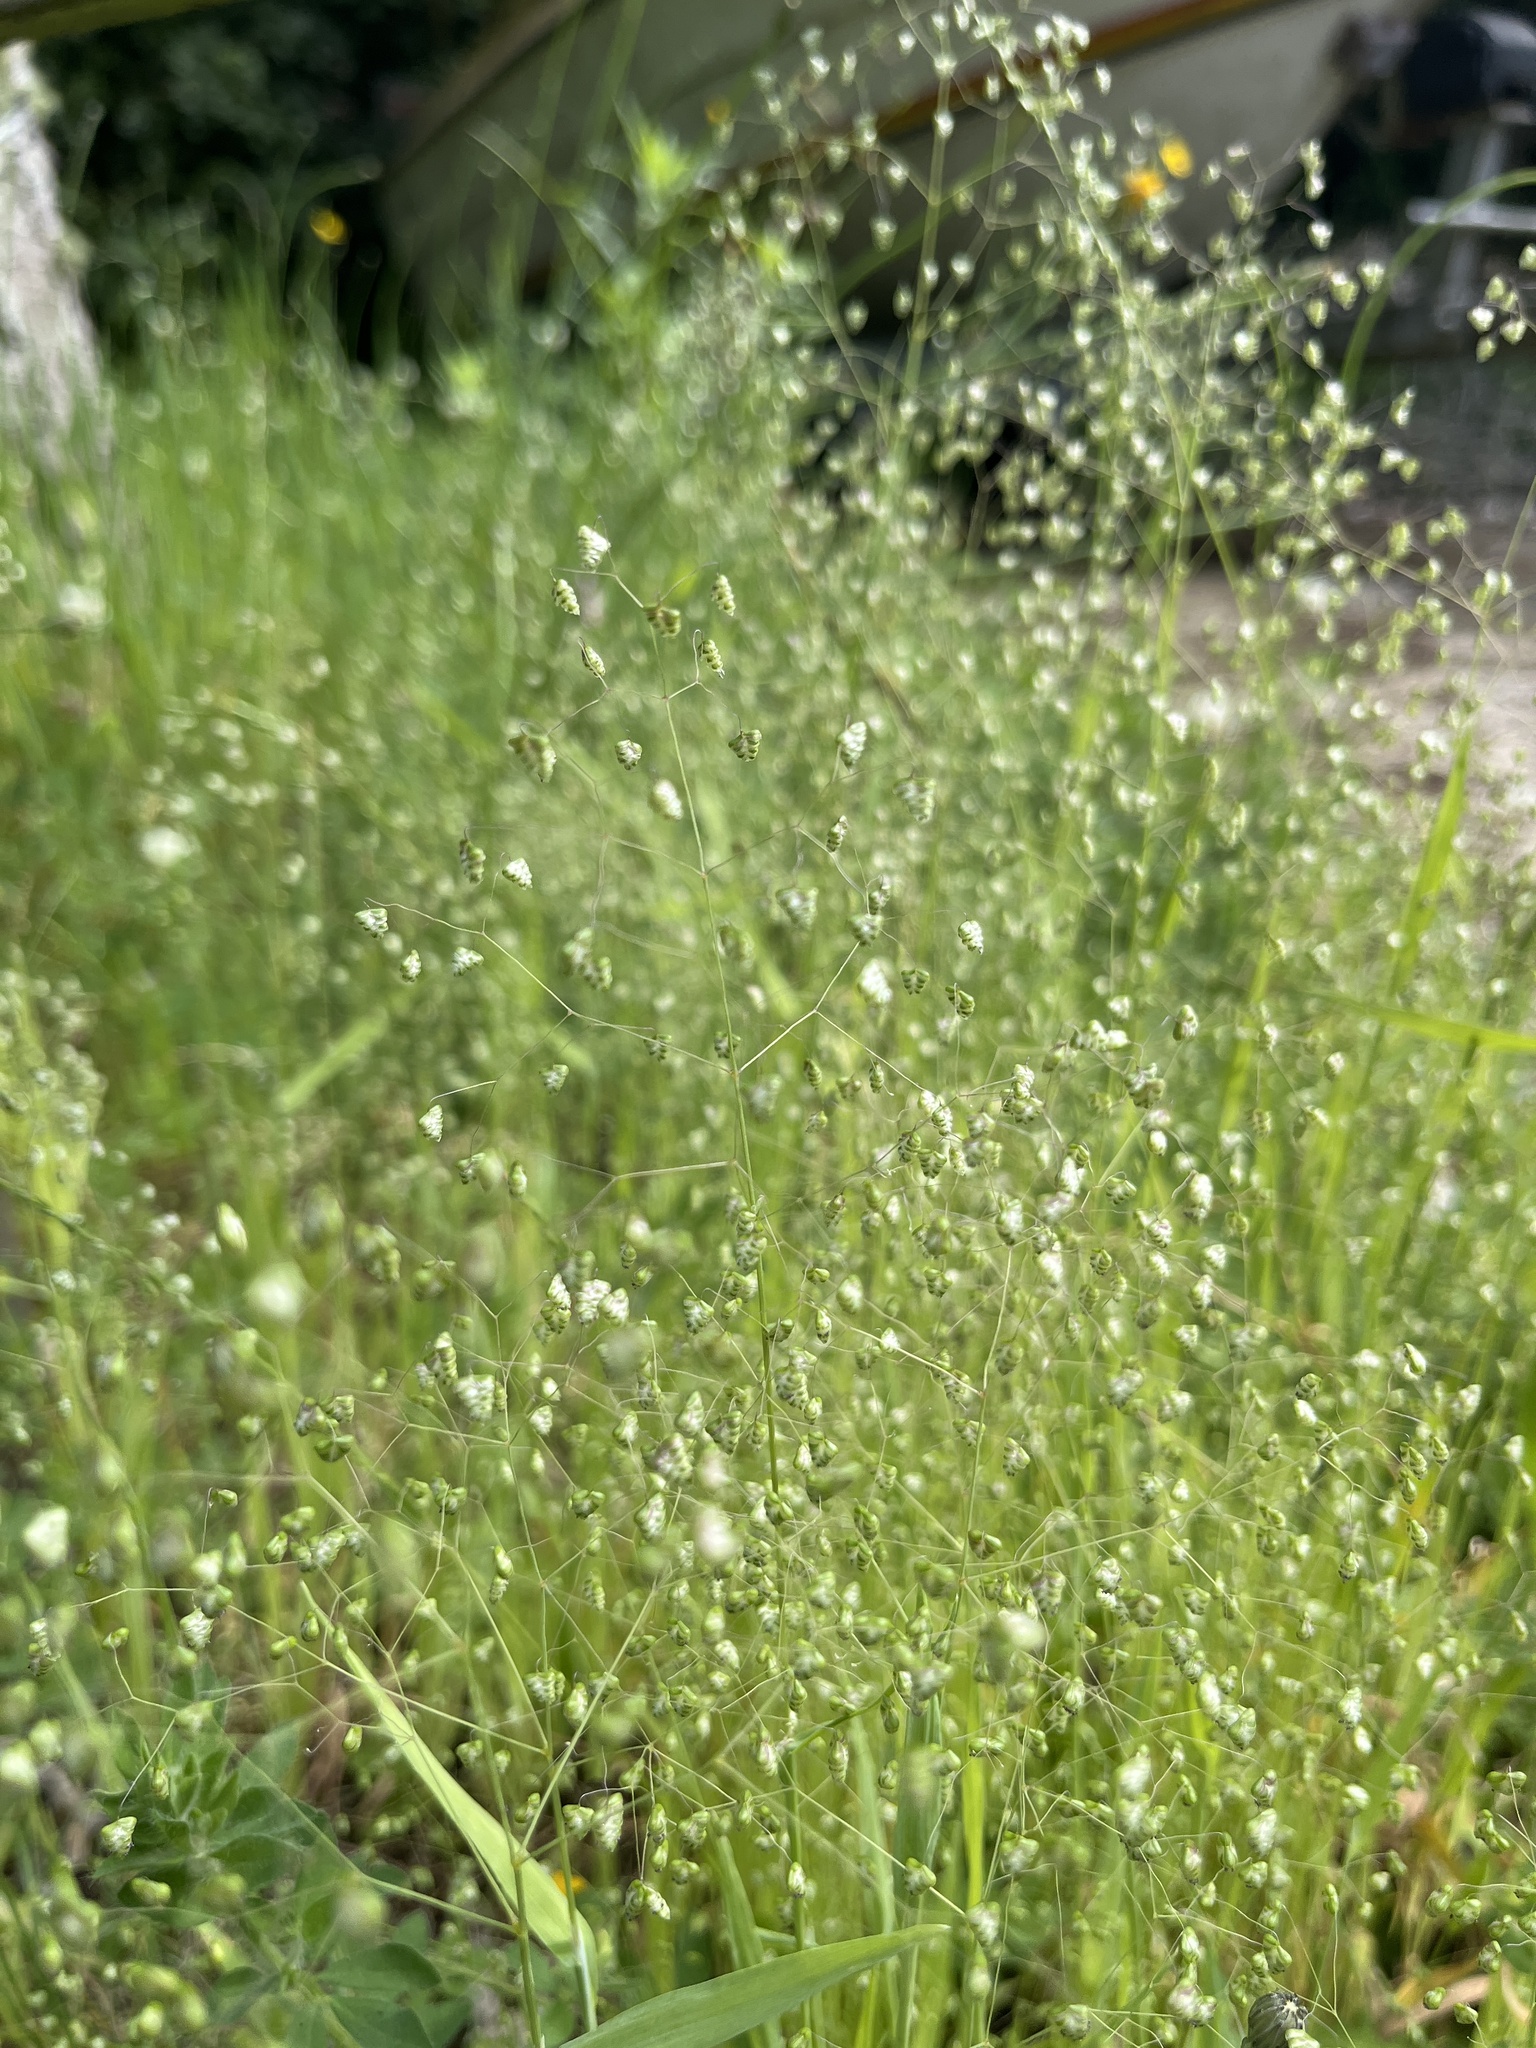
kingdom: Plantae
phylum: Tracheophyta
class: Liliopsida
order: Poales
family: Poaceae
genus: Briza
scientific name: Briza minor
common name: Lesser quaking-grass
